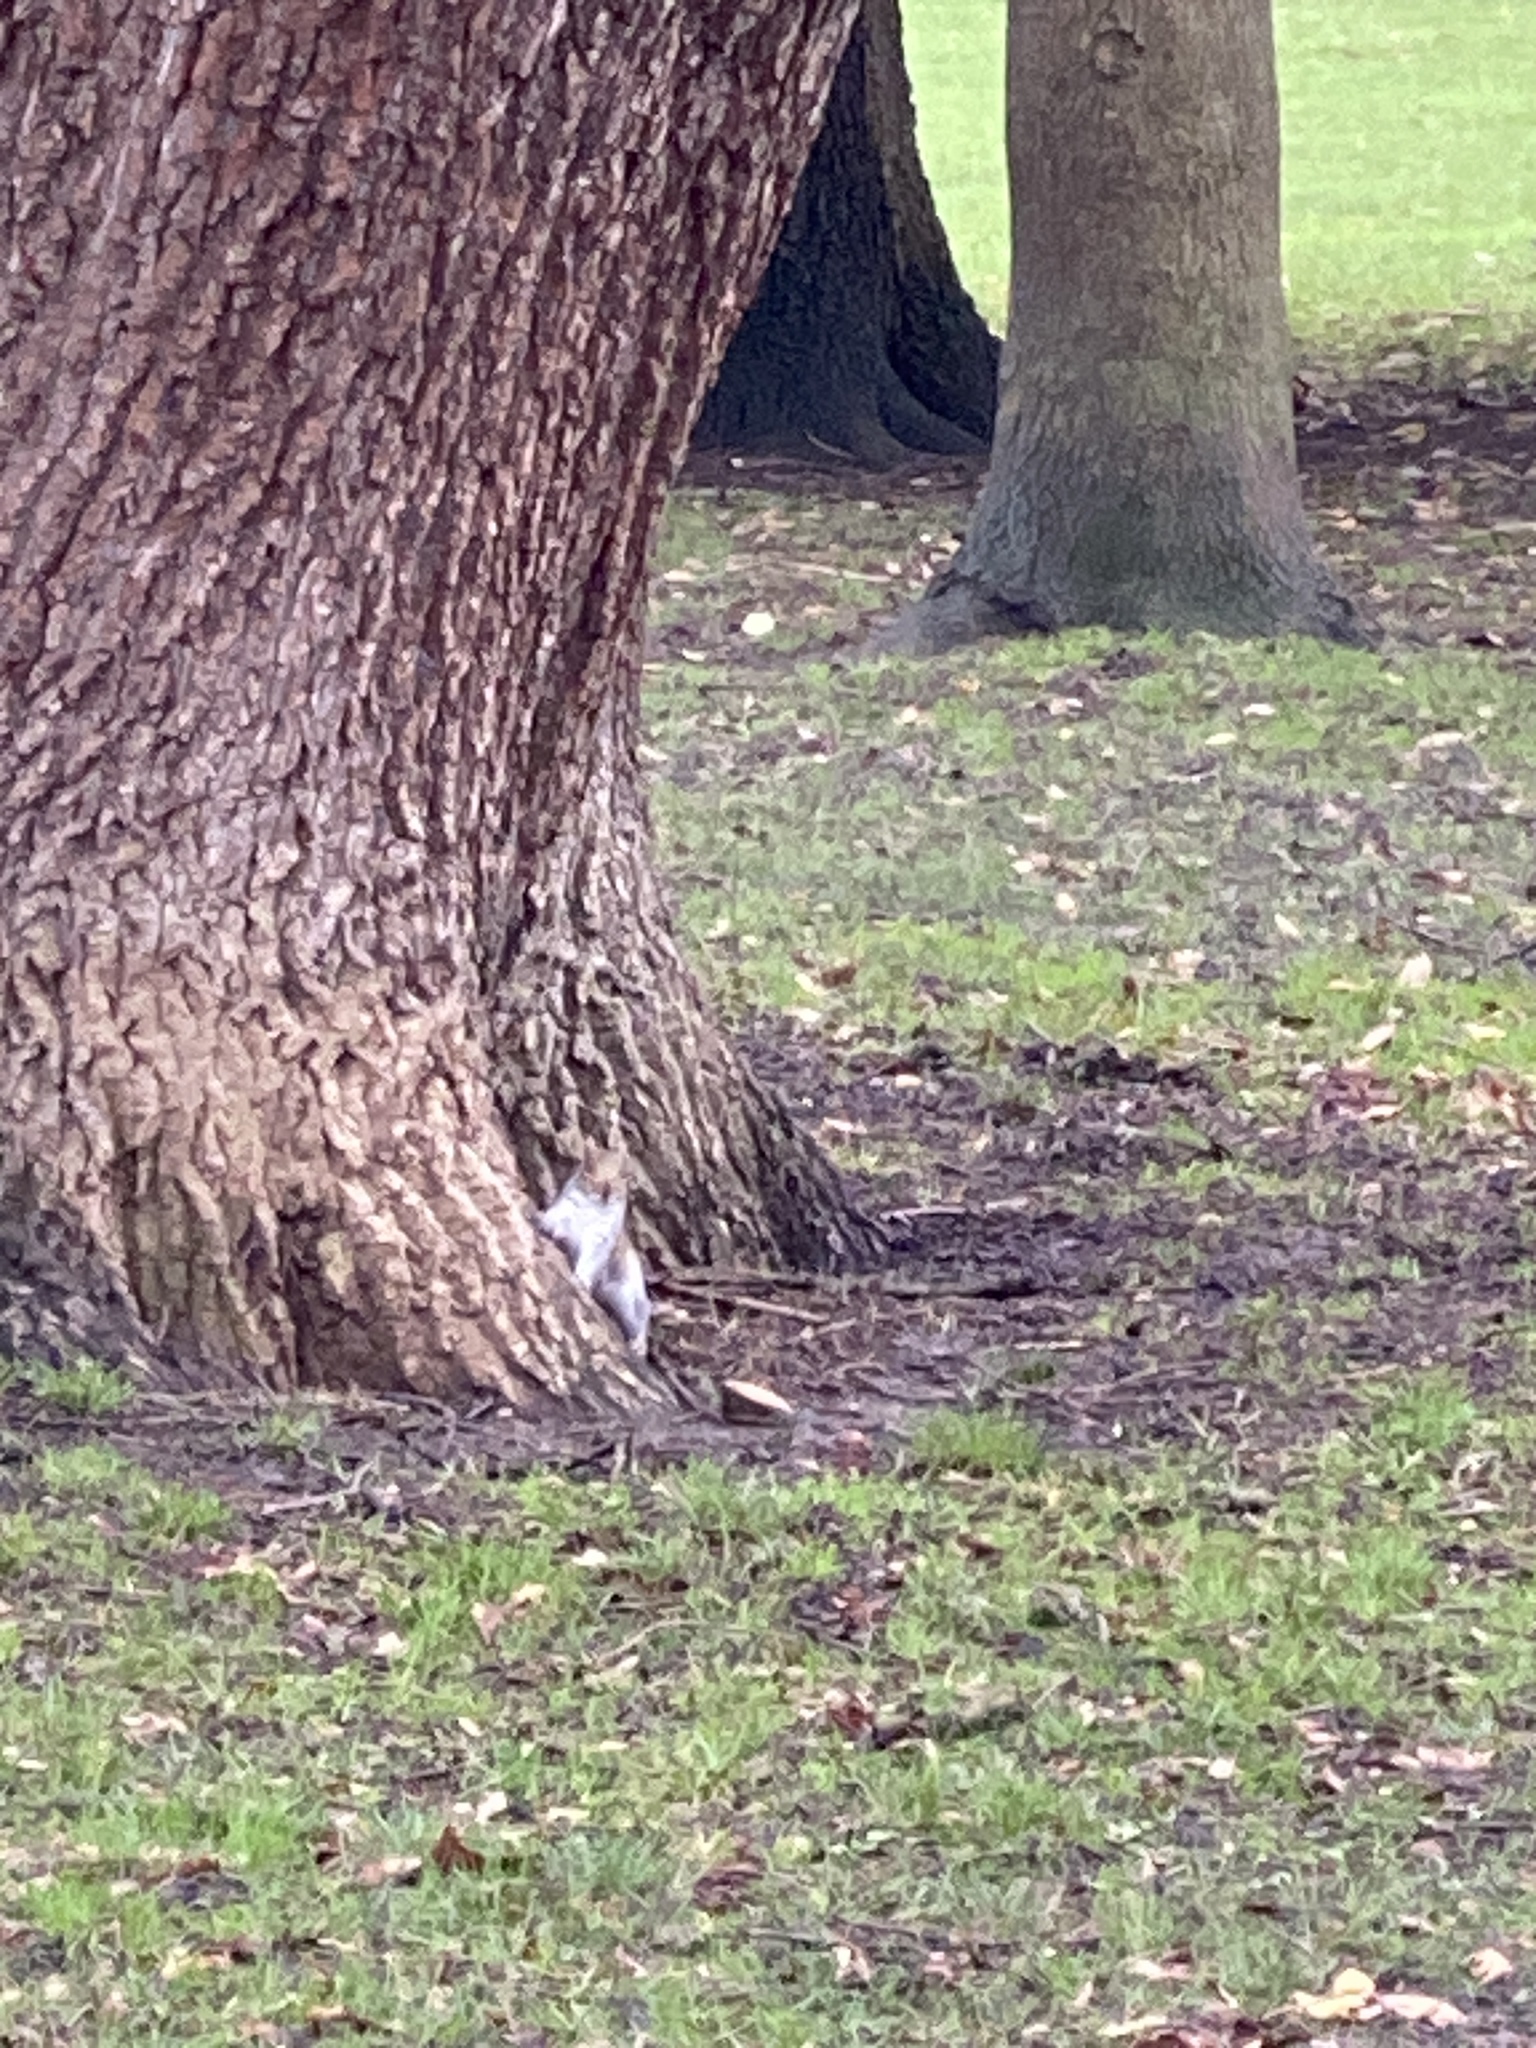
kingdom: Animalia
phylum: Chordata
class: Mammalia
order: Rodentia
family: Sciuridae
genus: Sciurus
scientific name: Sciurus carolinensis
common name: Eastern gray squirrel
